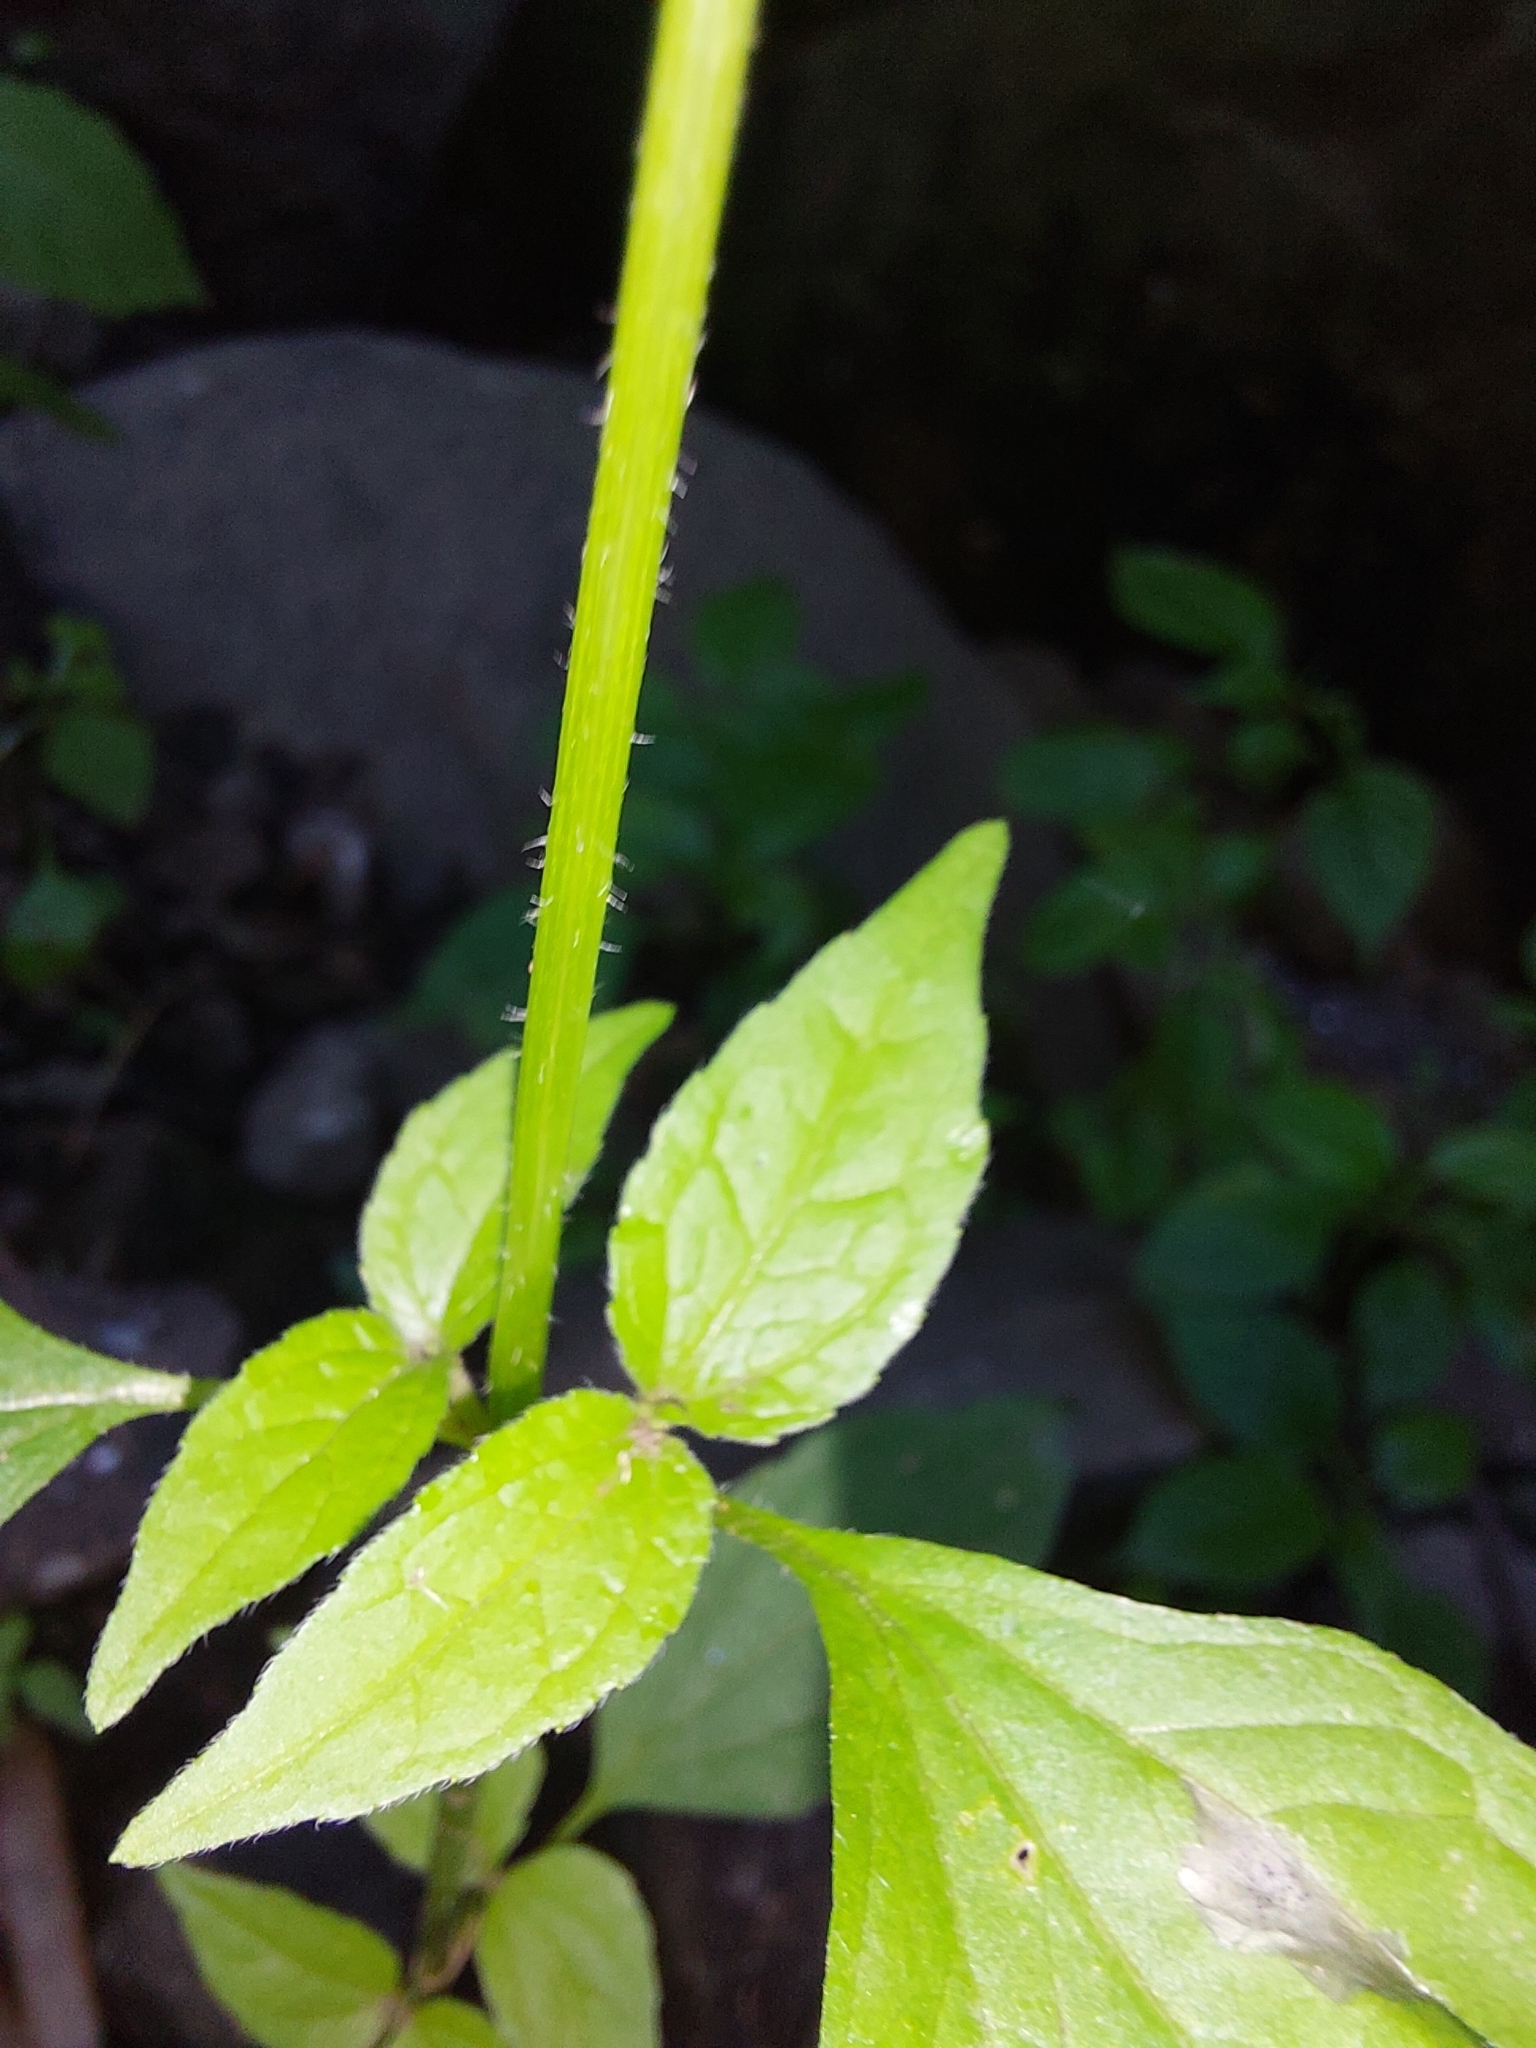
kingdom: Plantae
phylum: Tracheophyta
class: Magnoliopsida
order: Asterales
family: Asteraceae
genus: Galinsoga
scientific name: Galinsoga parviflora
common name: Gallant soldier
